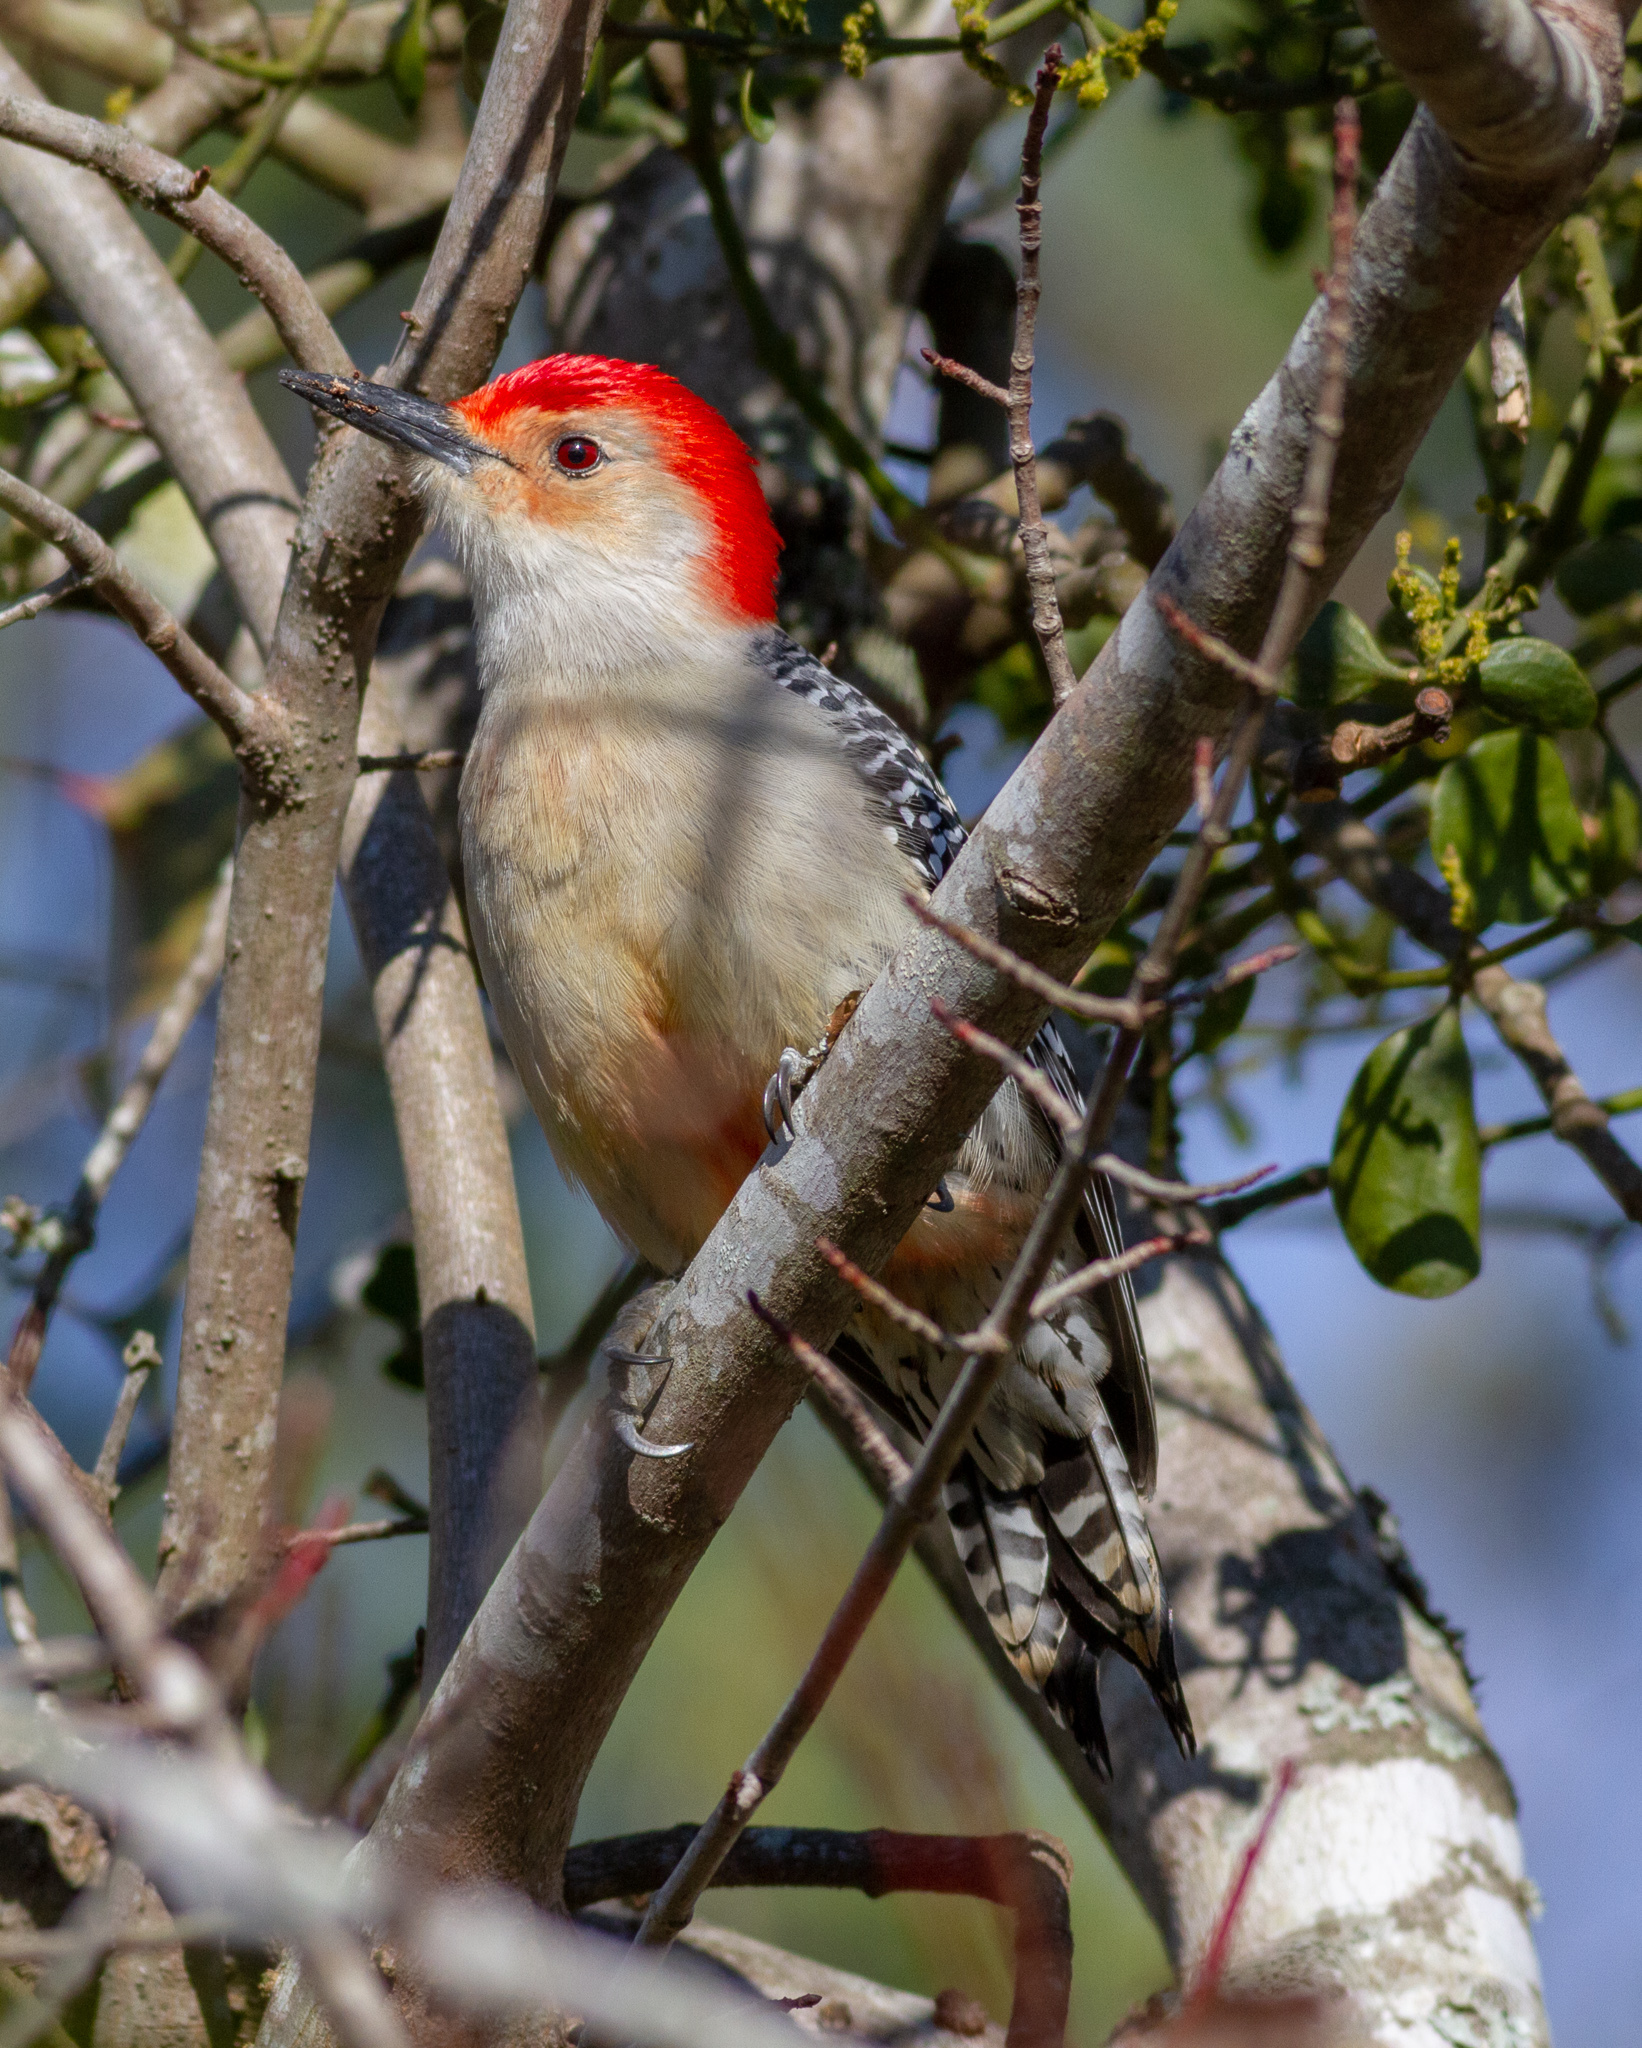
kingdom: Animalia
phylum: Chordata
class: Aves
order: Piciformes
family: Picidae
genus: Melanerpes
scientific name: Melanerpes carolinus
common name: Red-bellied woodpecker
